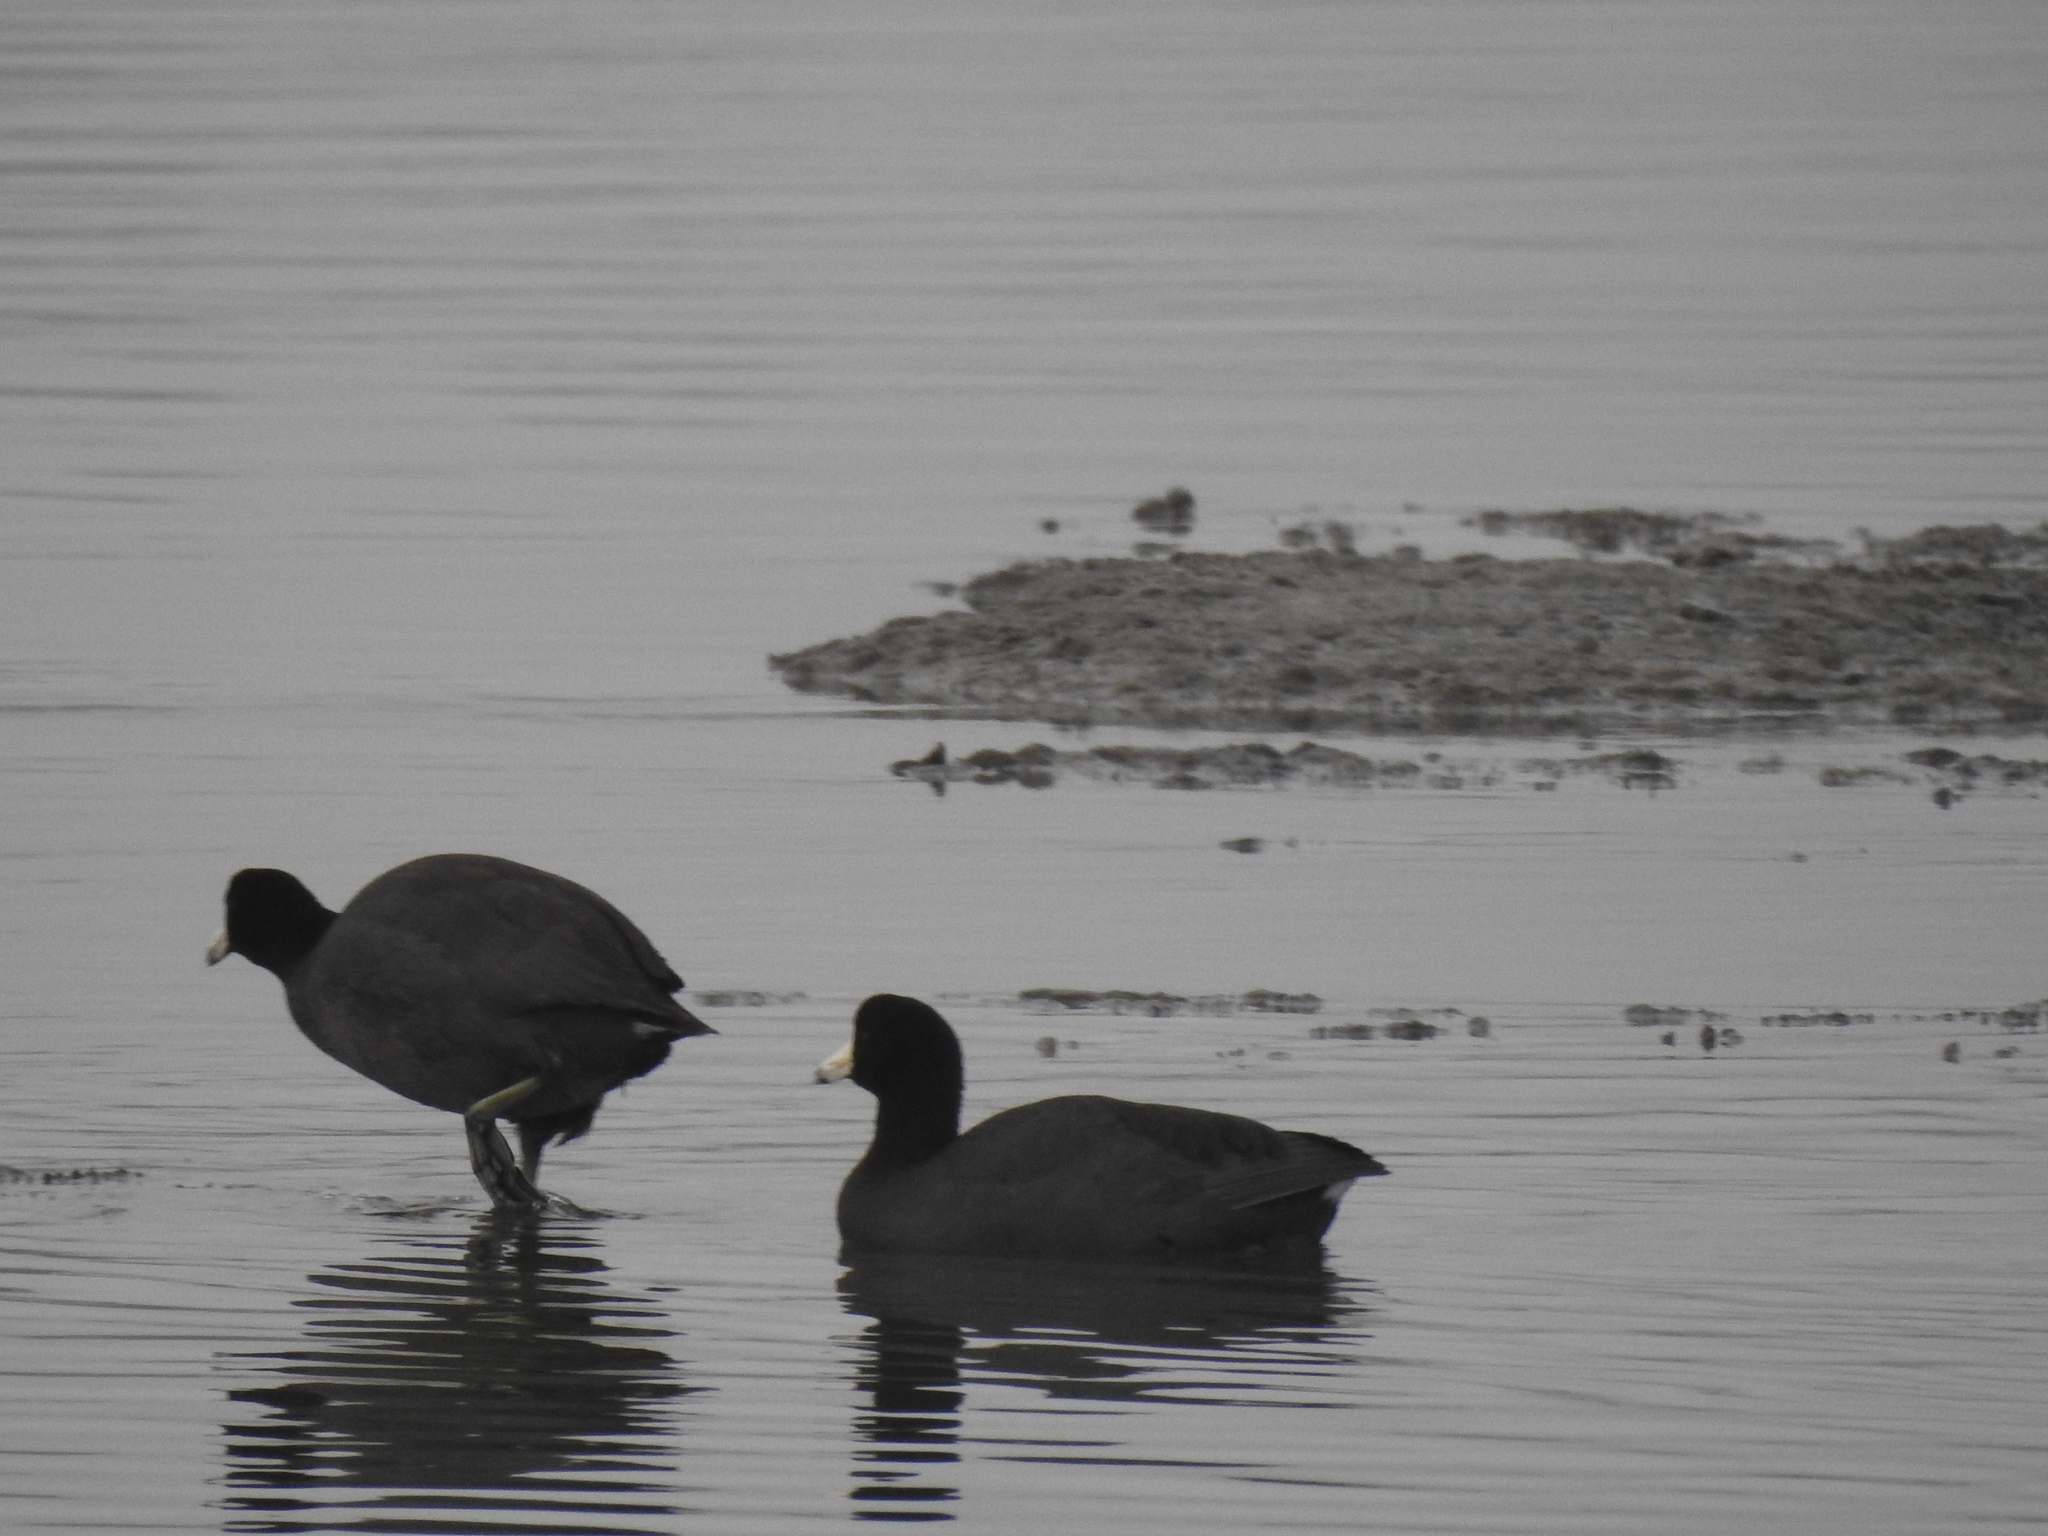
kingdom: Animalia
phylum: Chordata
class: Aves
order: Gruiformes
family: Rallidae
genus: Fulica
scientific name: Fulica americana
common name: American coot
